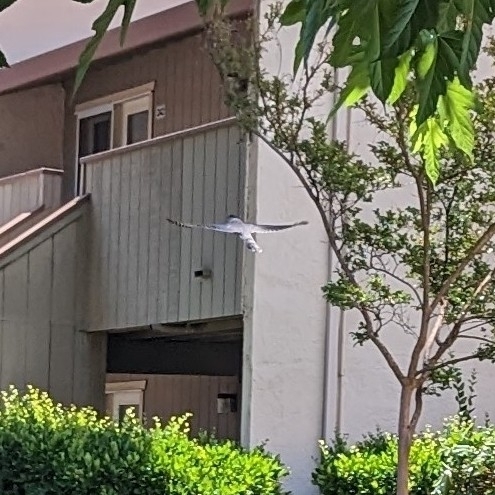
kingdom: Animalia
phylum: Chordata
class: Aves
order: Accipitriformes
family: Accipitridae
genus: Accipiter
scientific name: Accipiter cooperii
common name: Cooper's hawk
